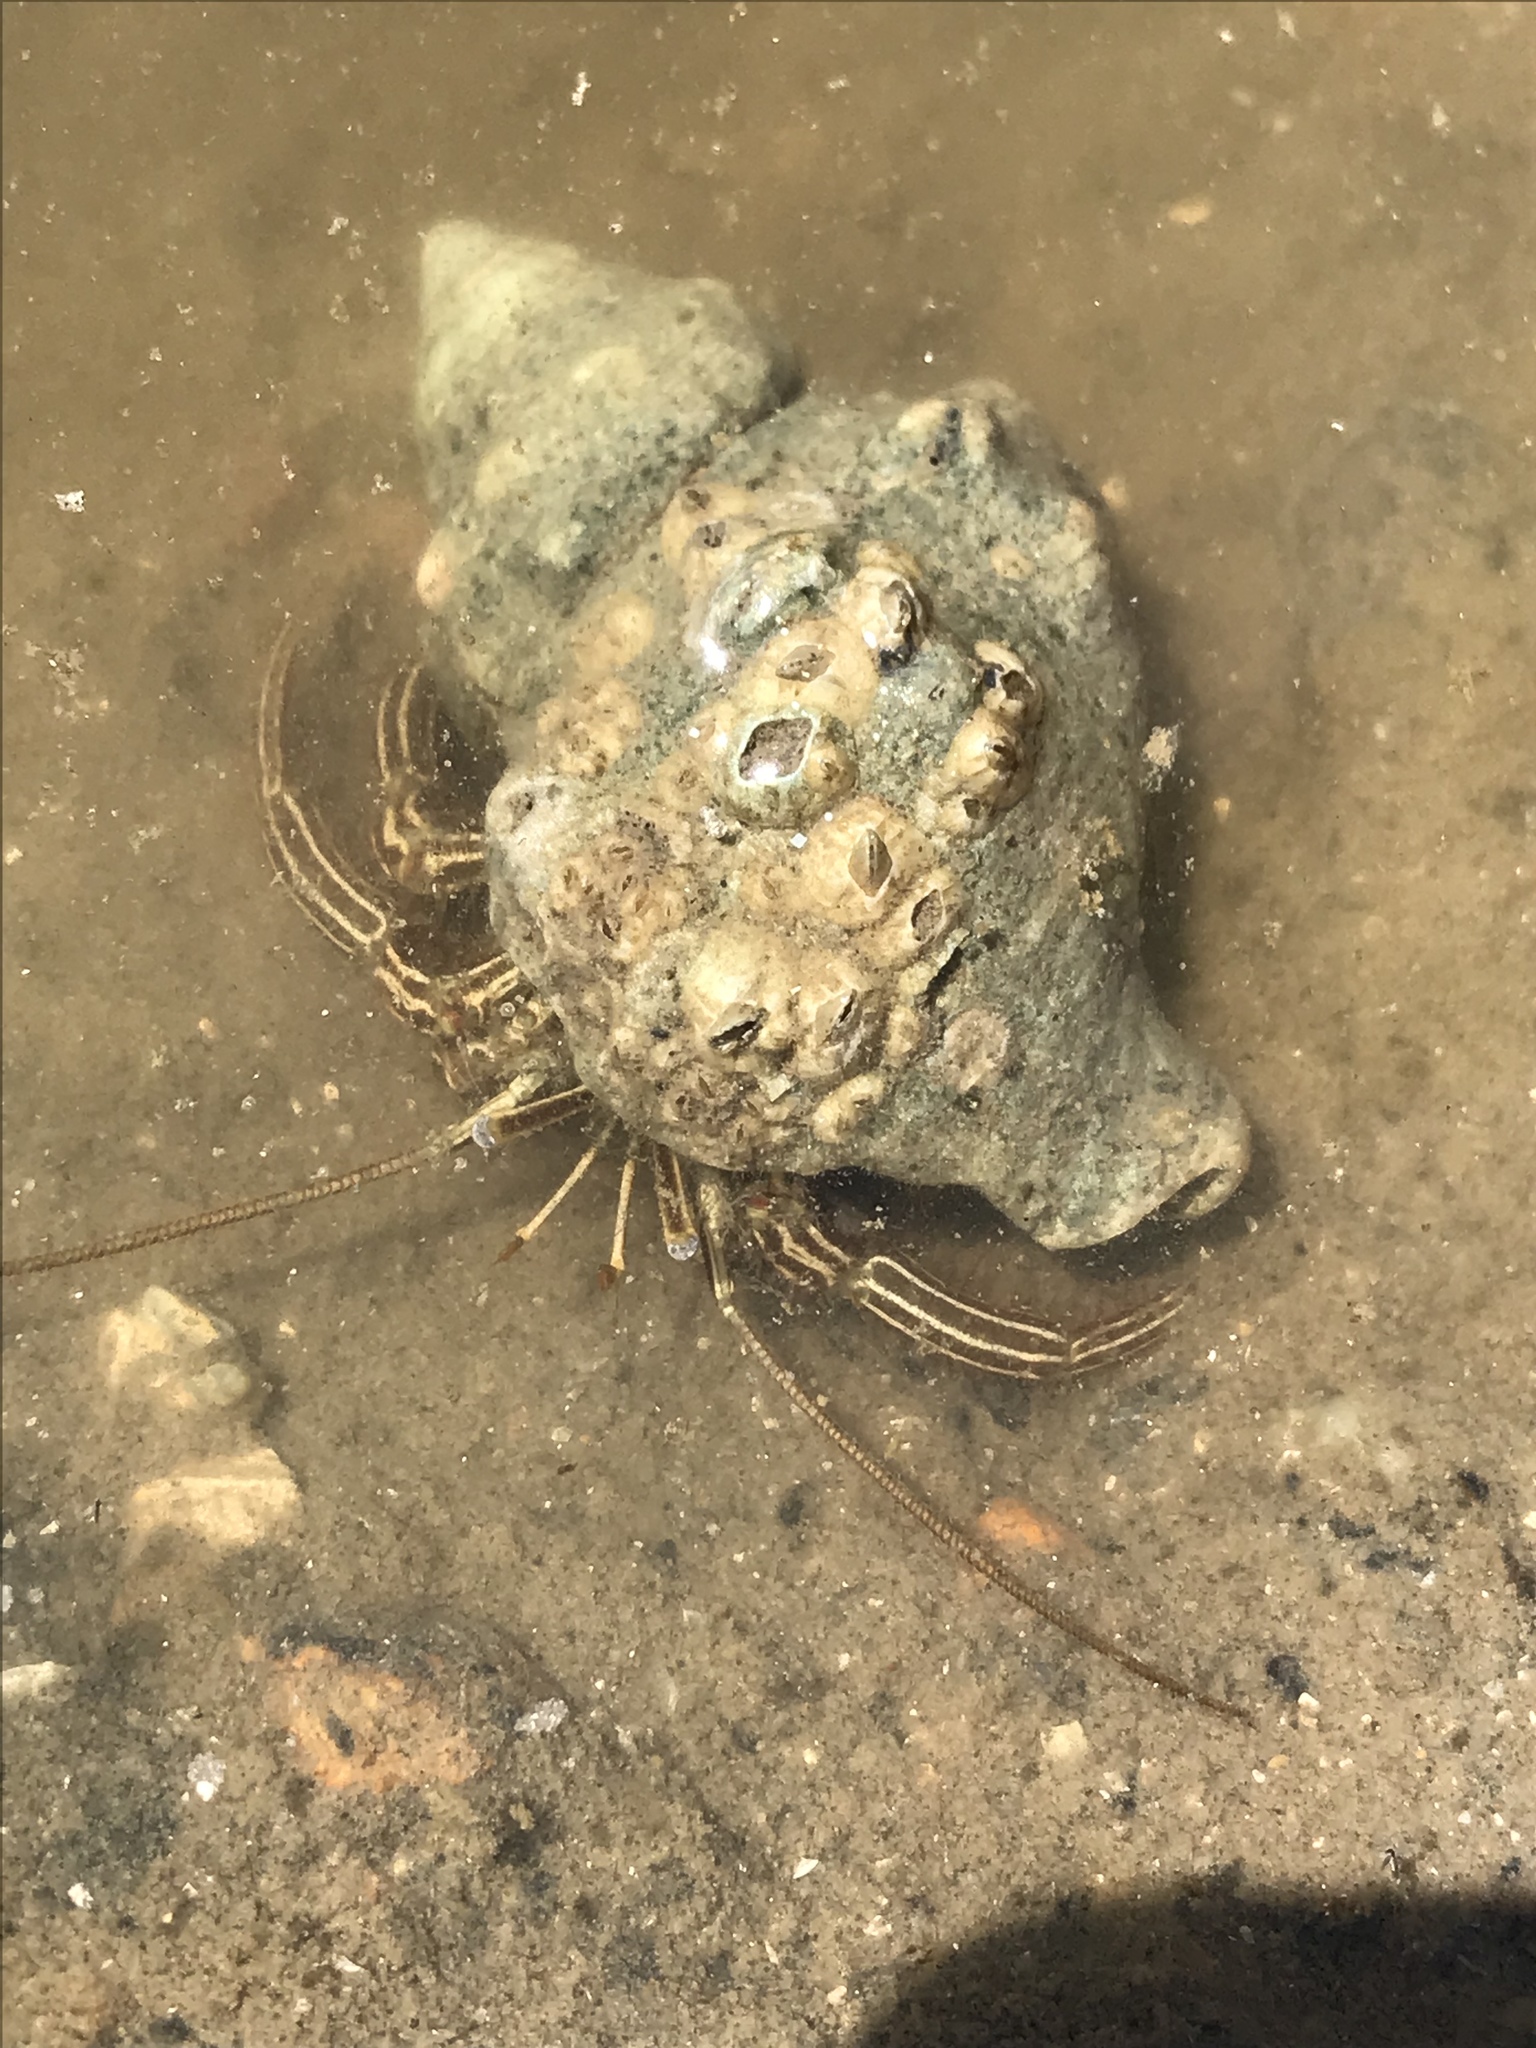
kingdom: Animalia
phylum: Arthropoda
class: Malacostraca
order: Decapoda
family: Diogenidae
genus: Clibanarius
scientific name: Clibanarius vittatus
